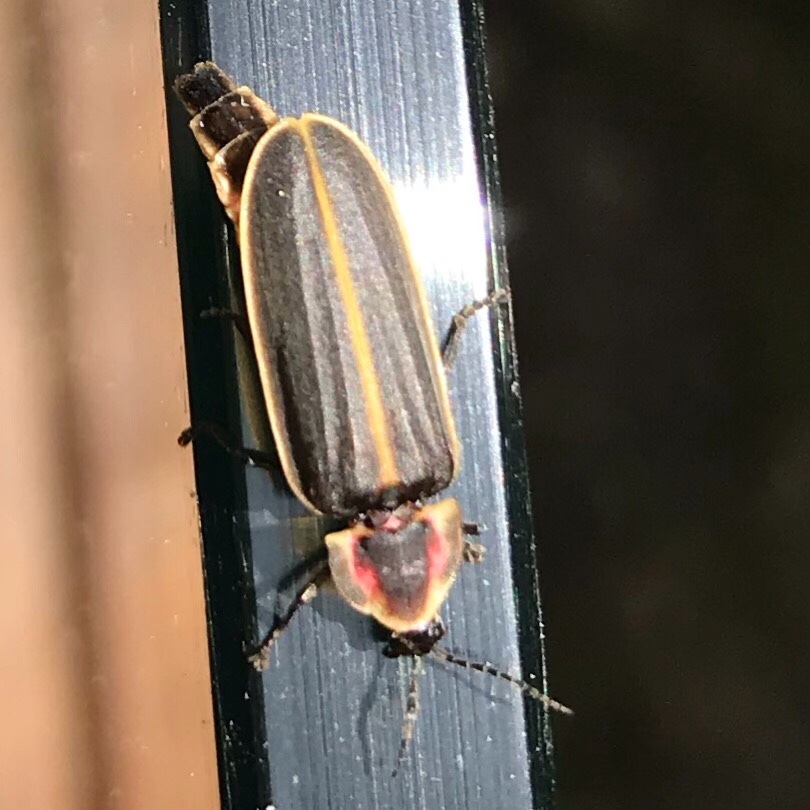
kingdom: Animalia
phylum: Arthropoda
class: Insecta
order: Coleoptera
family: Lampyridae
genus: Pyractomena
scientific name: Pyractomena
